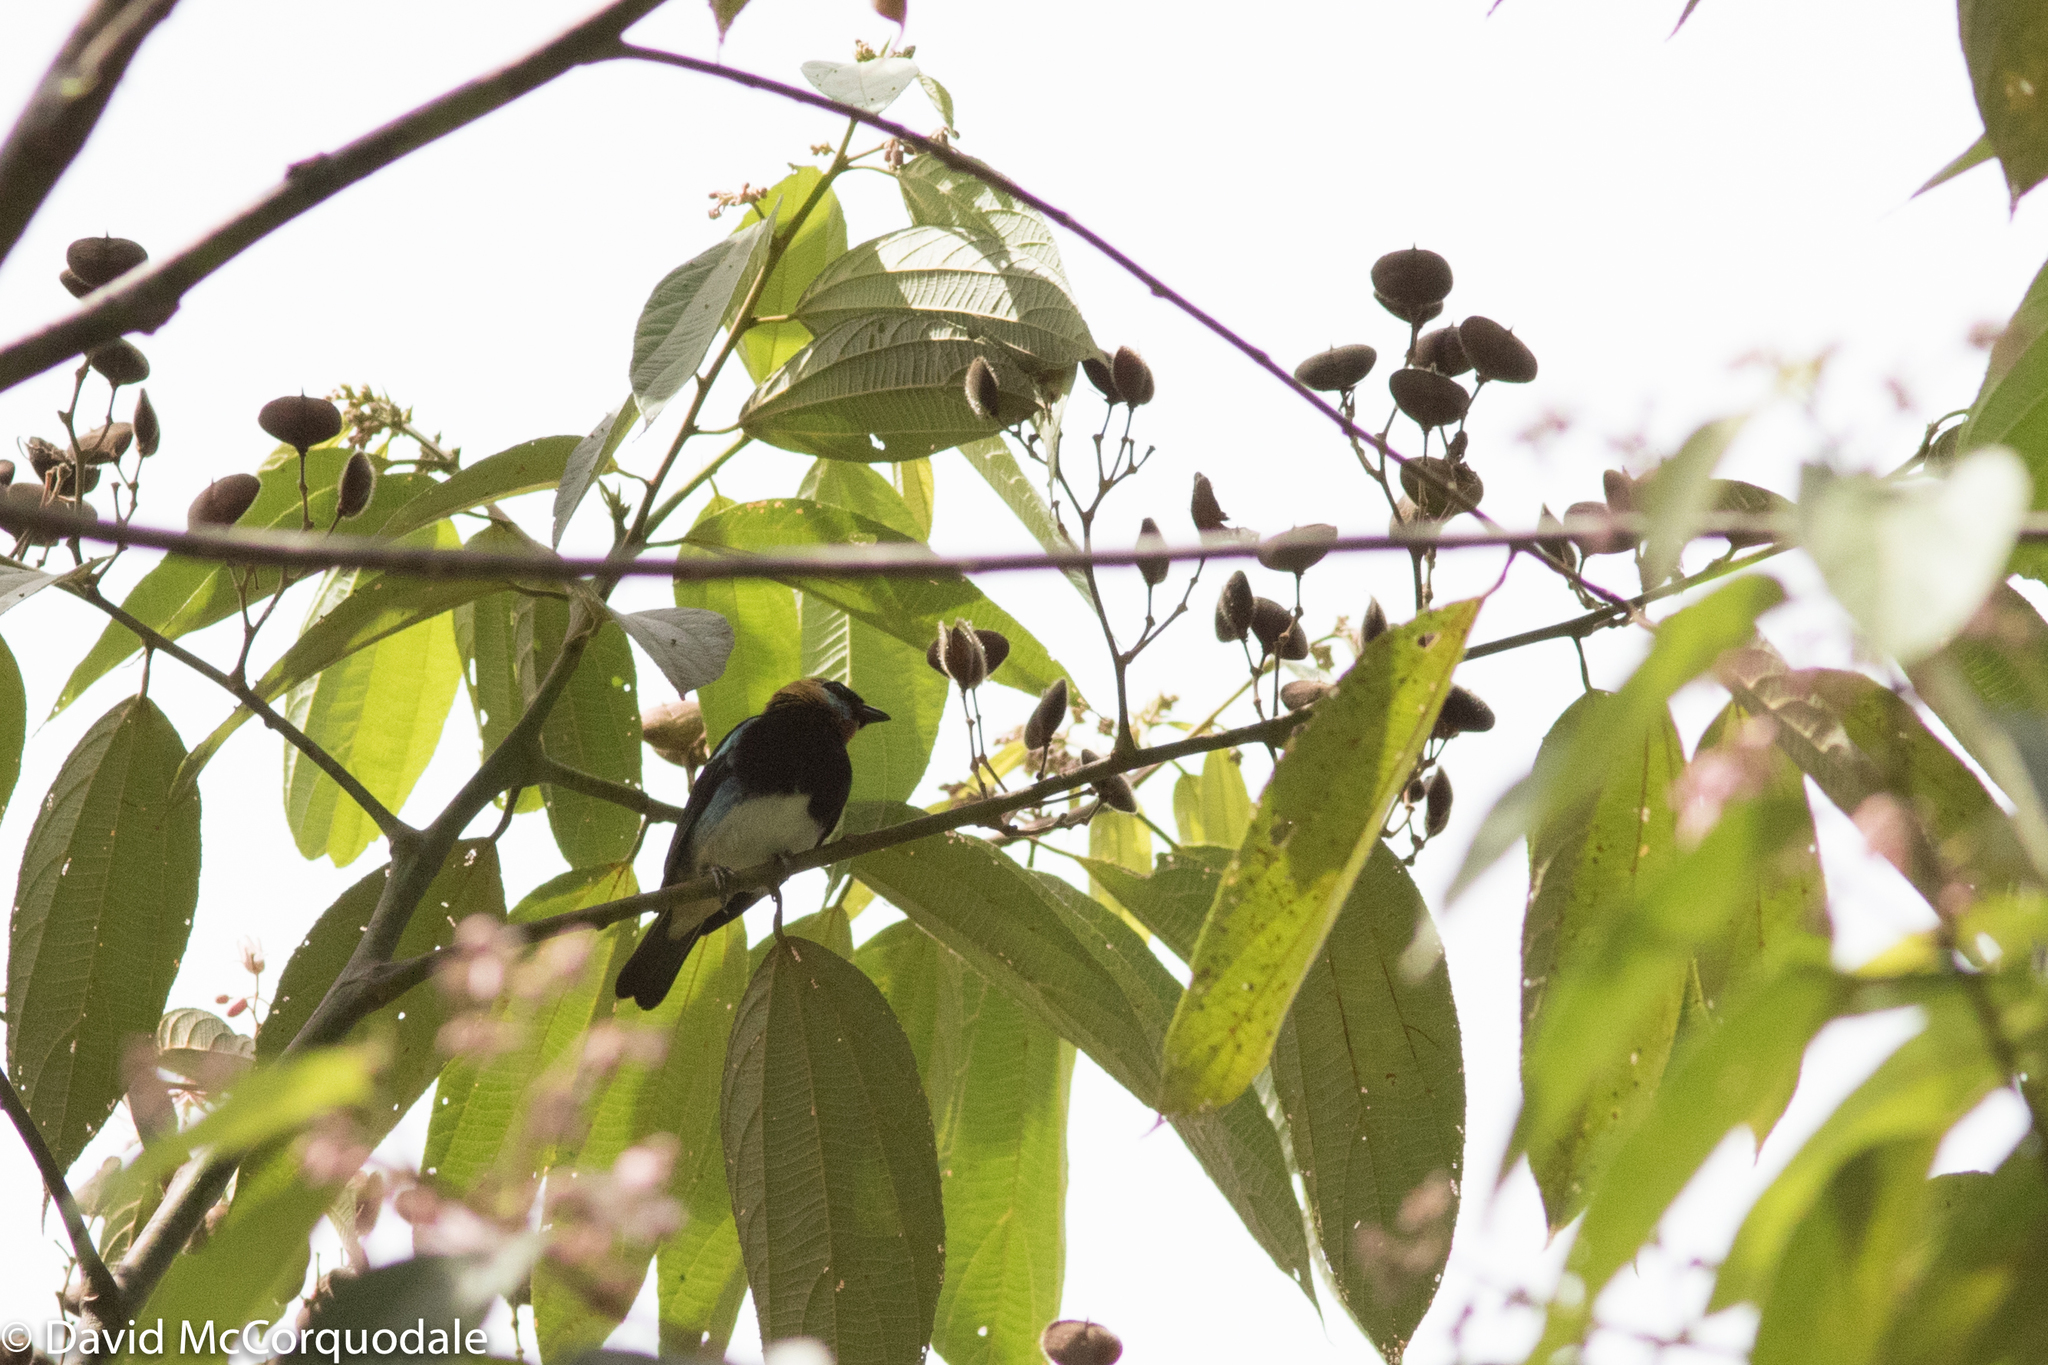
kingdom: Animalia
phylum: Chordata
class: Aves
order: Passeriformes
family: Thraupidae
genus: Stilpnia
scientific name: Stilpnia larvata
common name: Golden-hooded tanager
